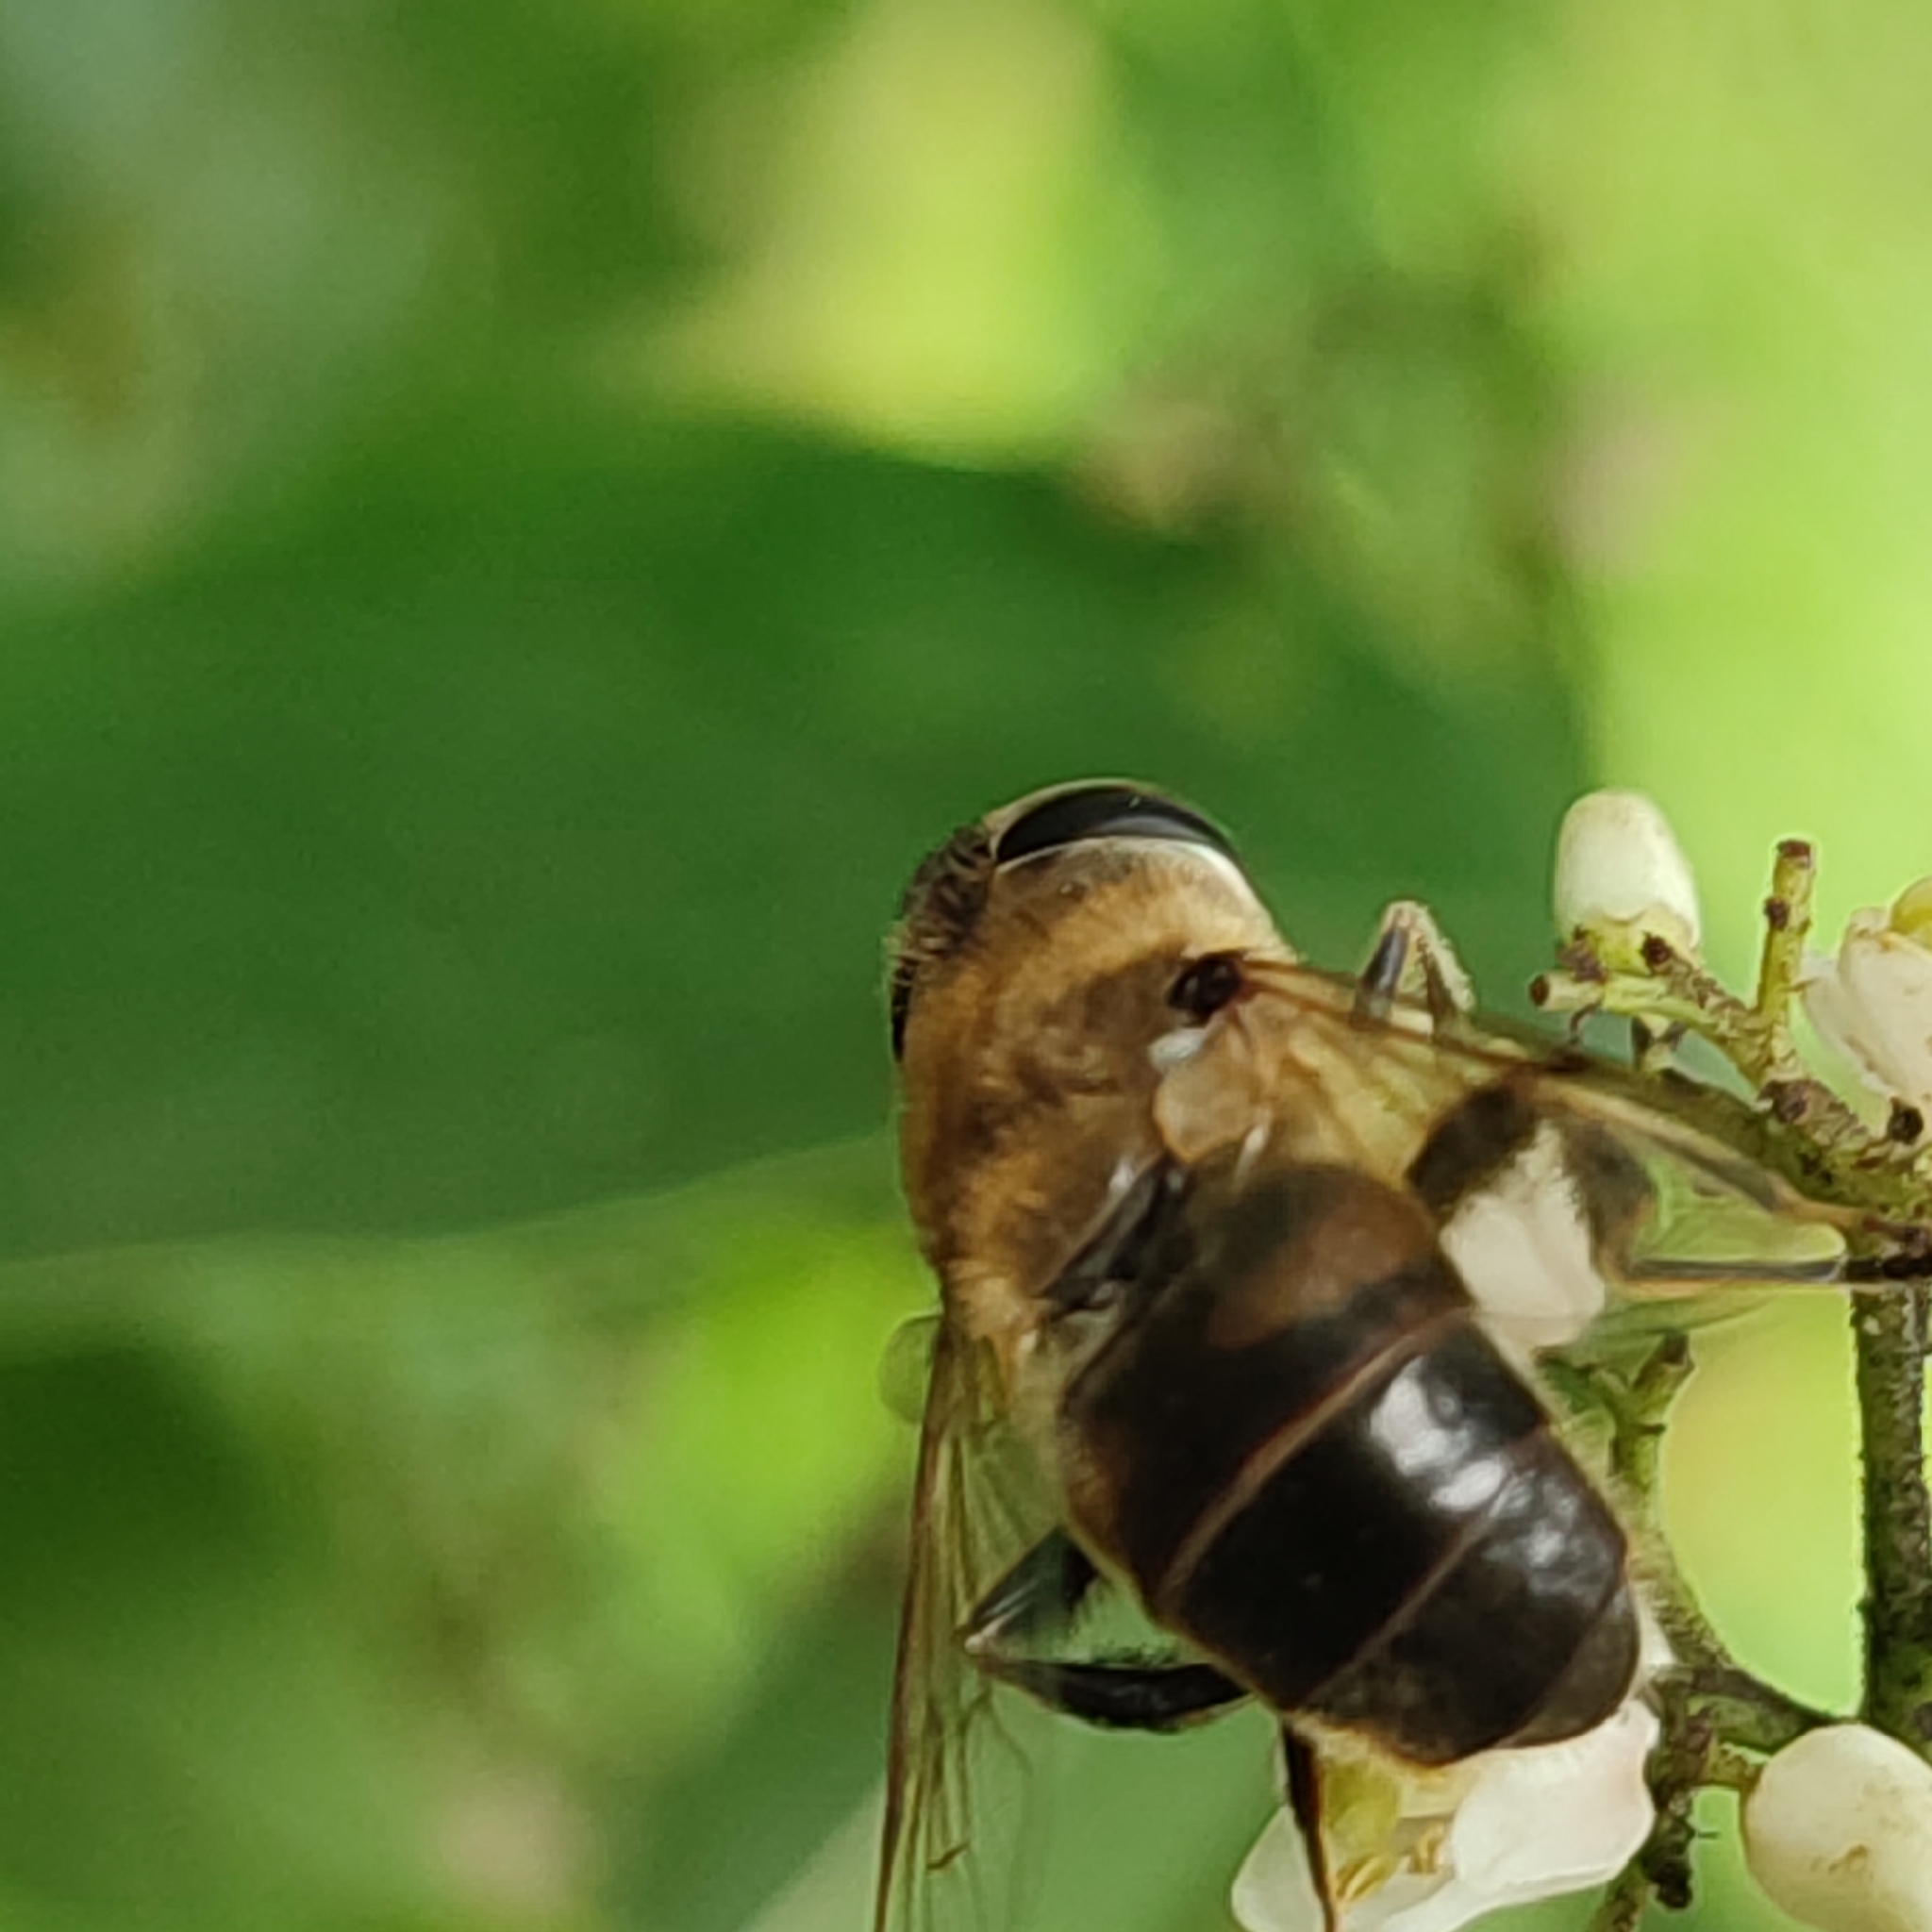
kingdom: Animalia
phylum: Arthropoda
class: Insecta
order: Diptera
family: Syrphidae
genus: Eristalis
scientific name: Eristalis tenax
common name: Drone fly
